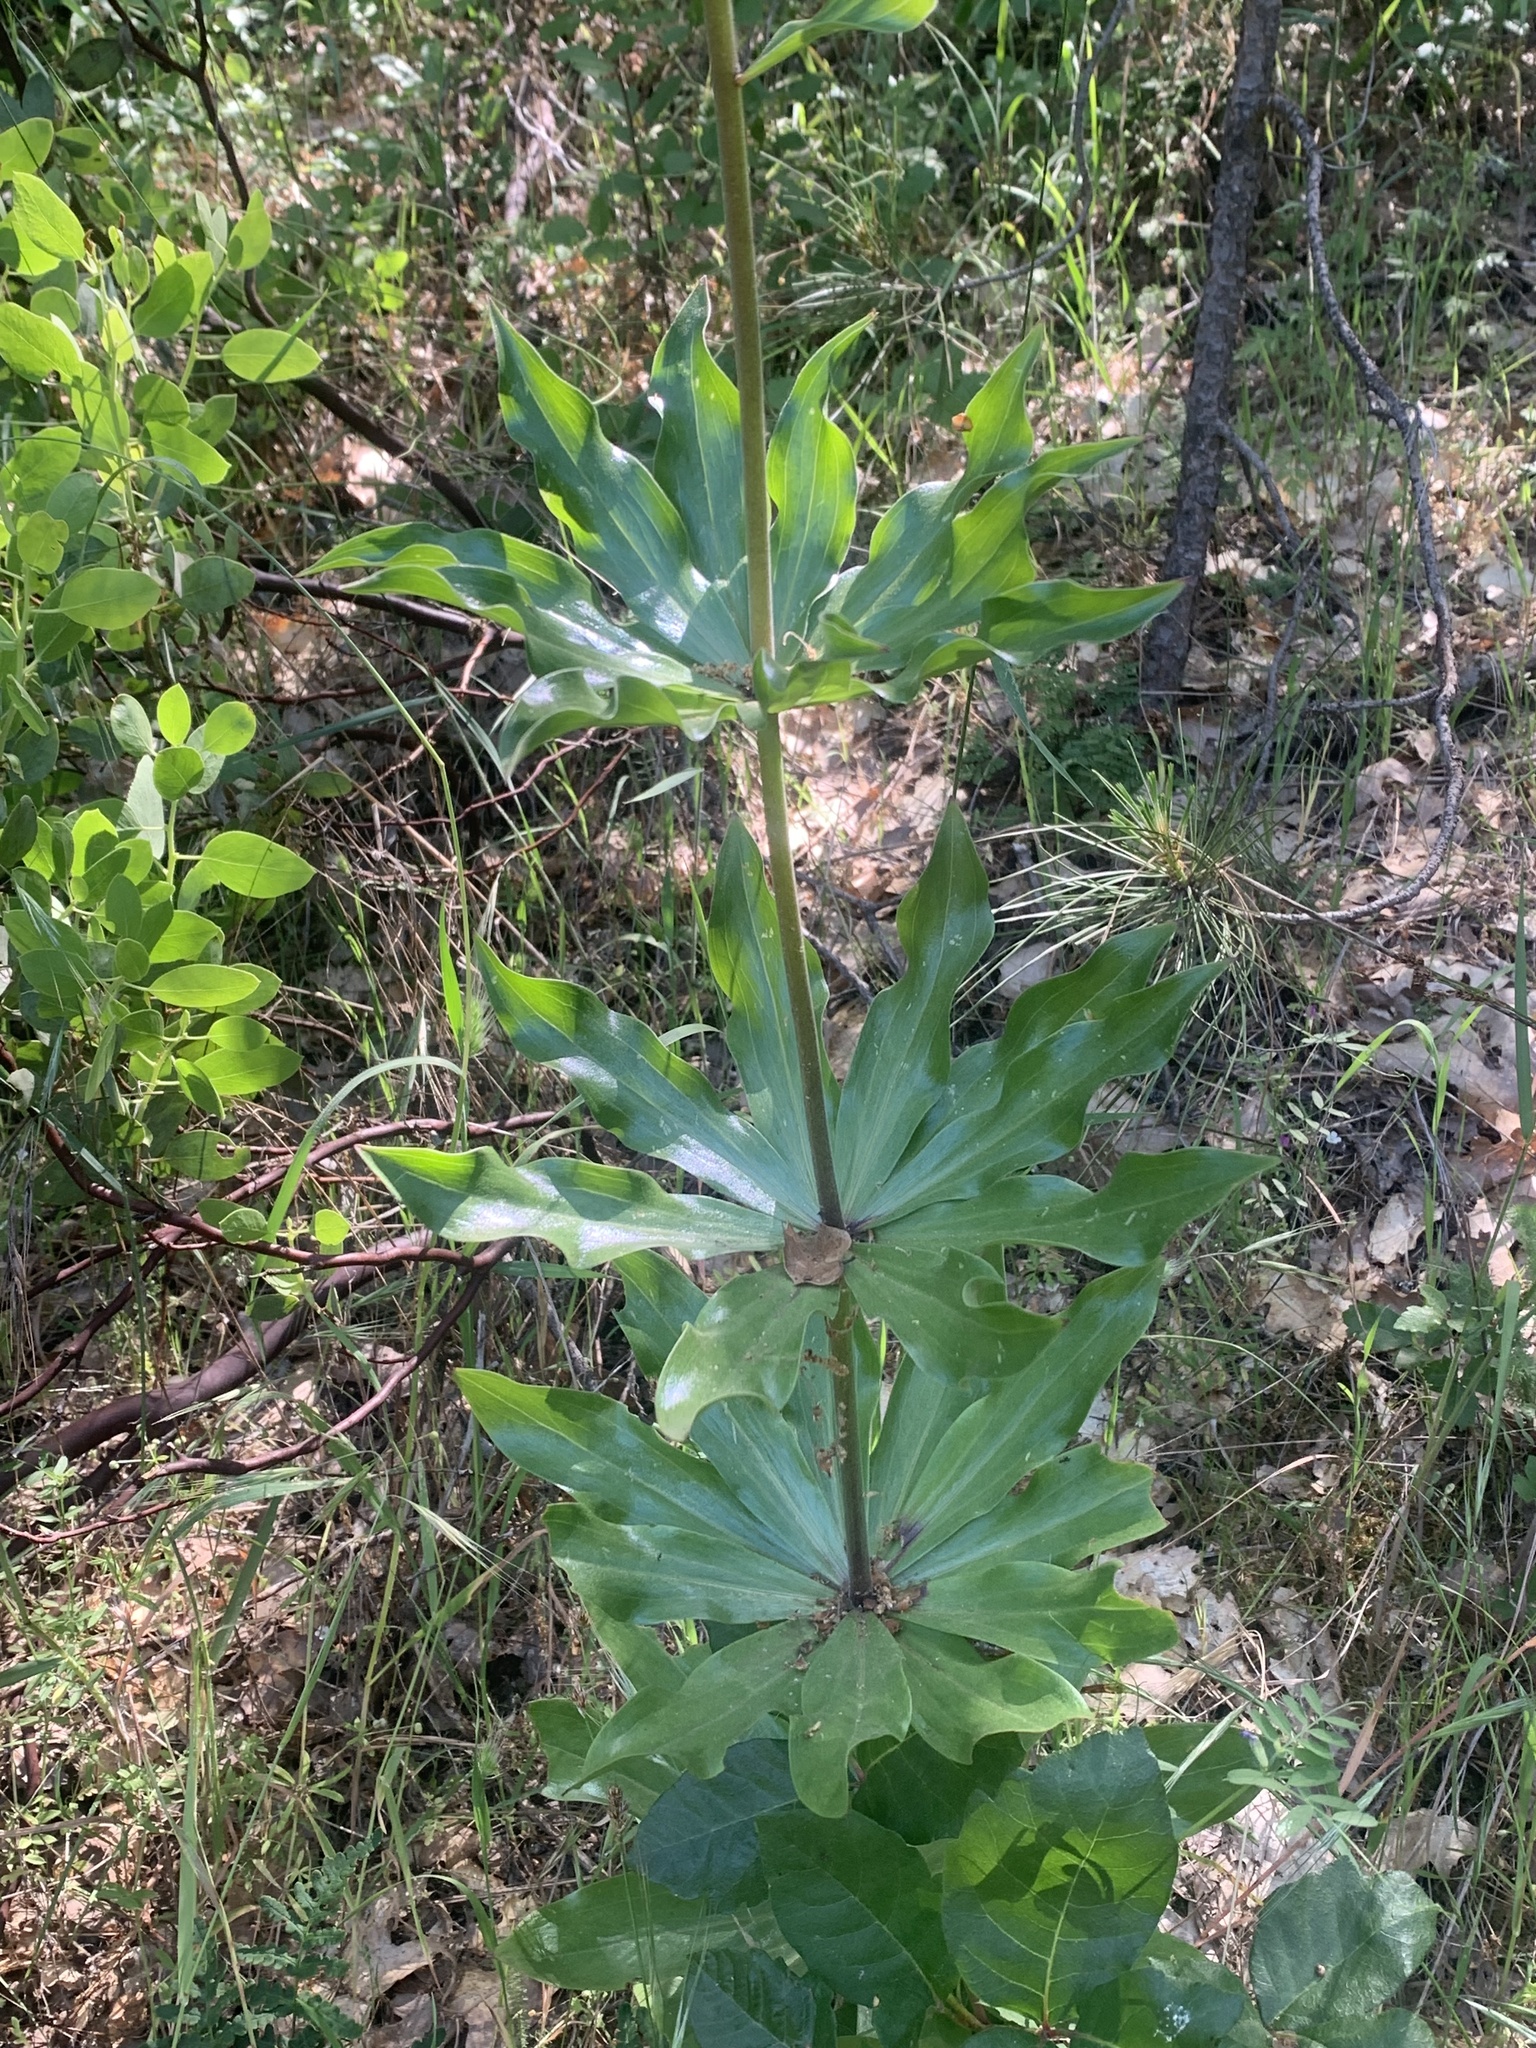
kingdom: Plantae
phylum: Tracheophyta
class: Liliopsida
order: Liliales
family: Liliaceae
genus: Lilium
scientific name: Lilium humboldtii
